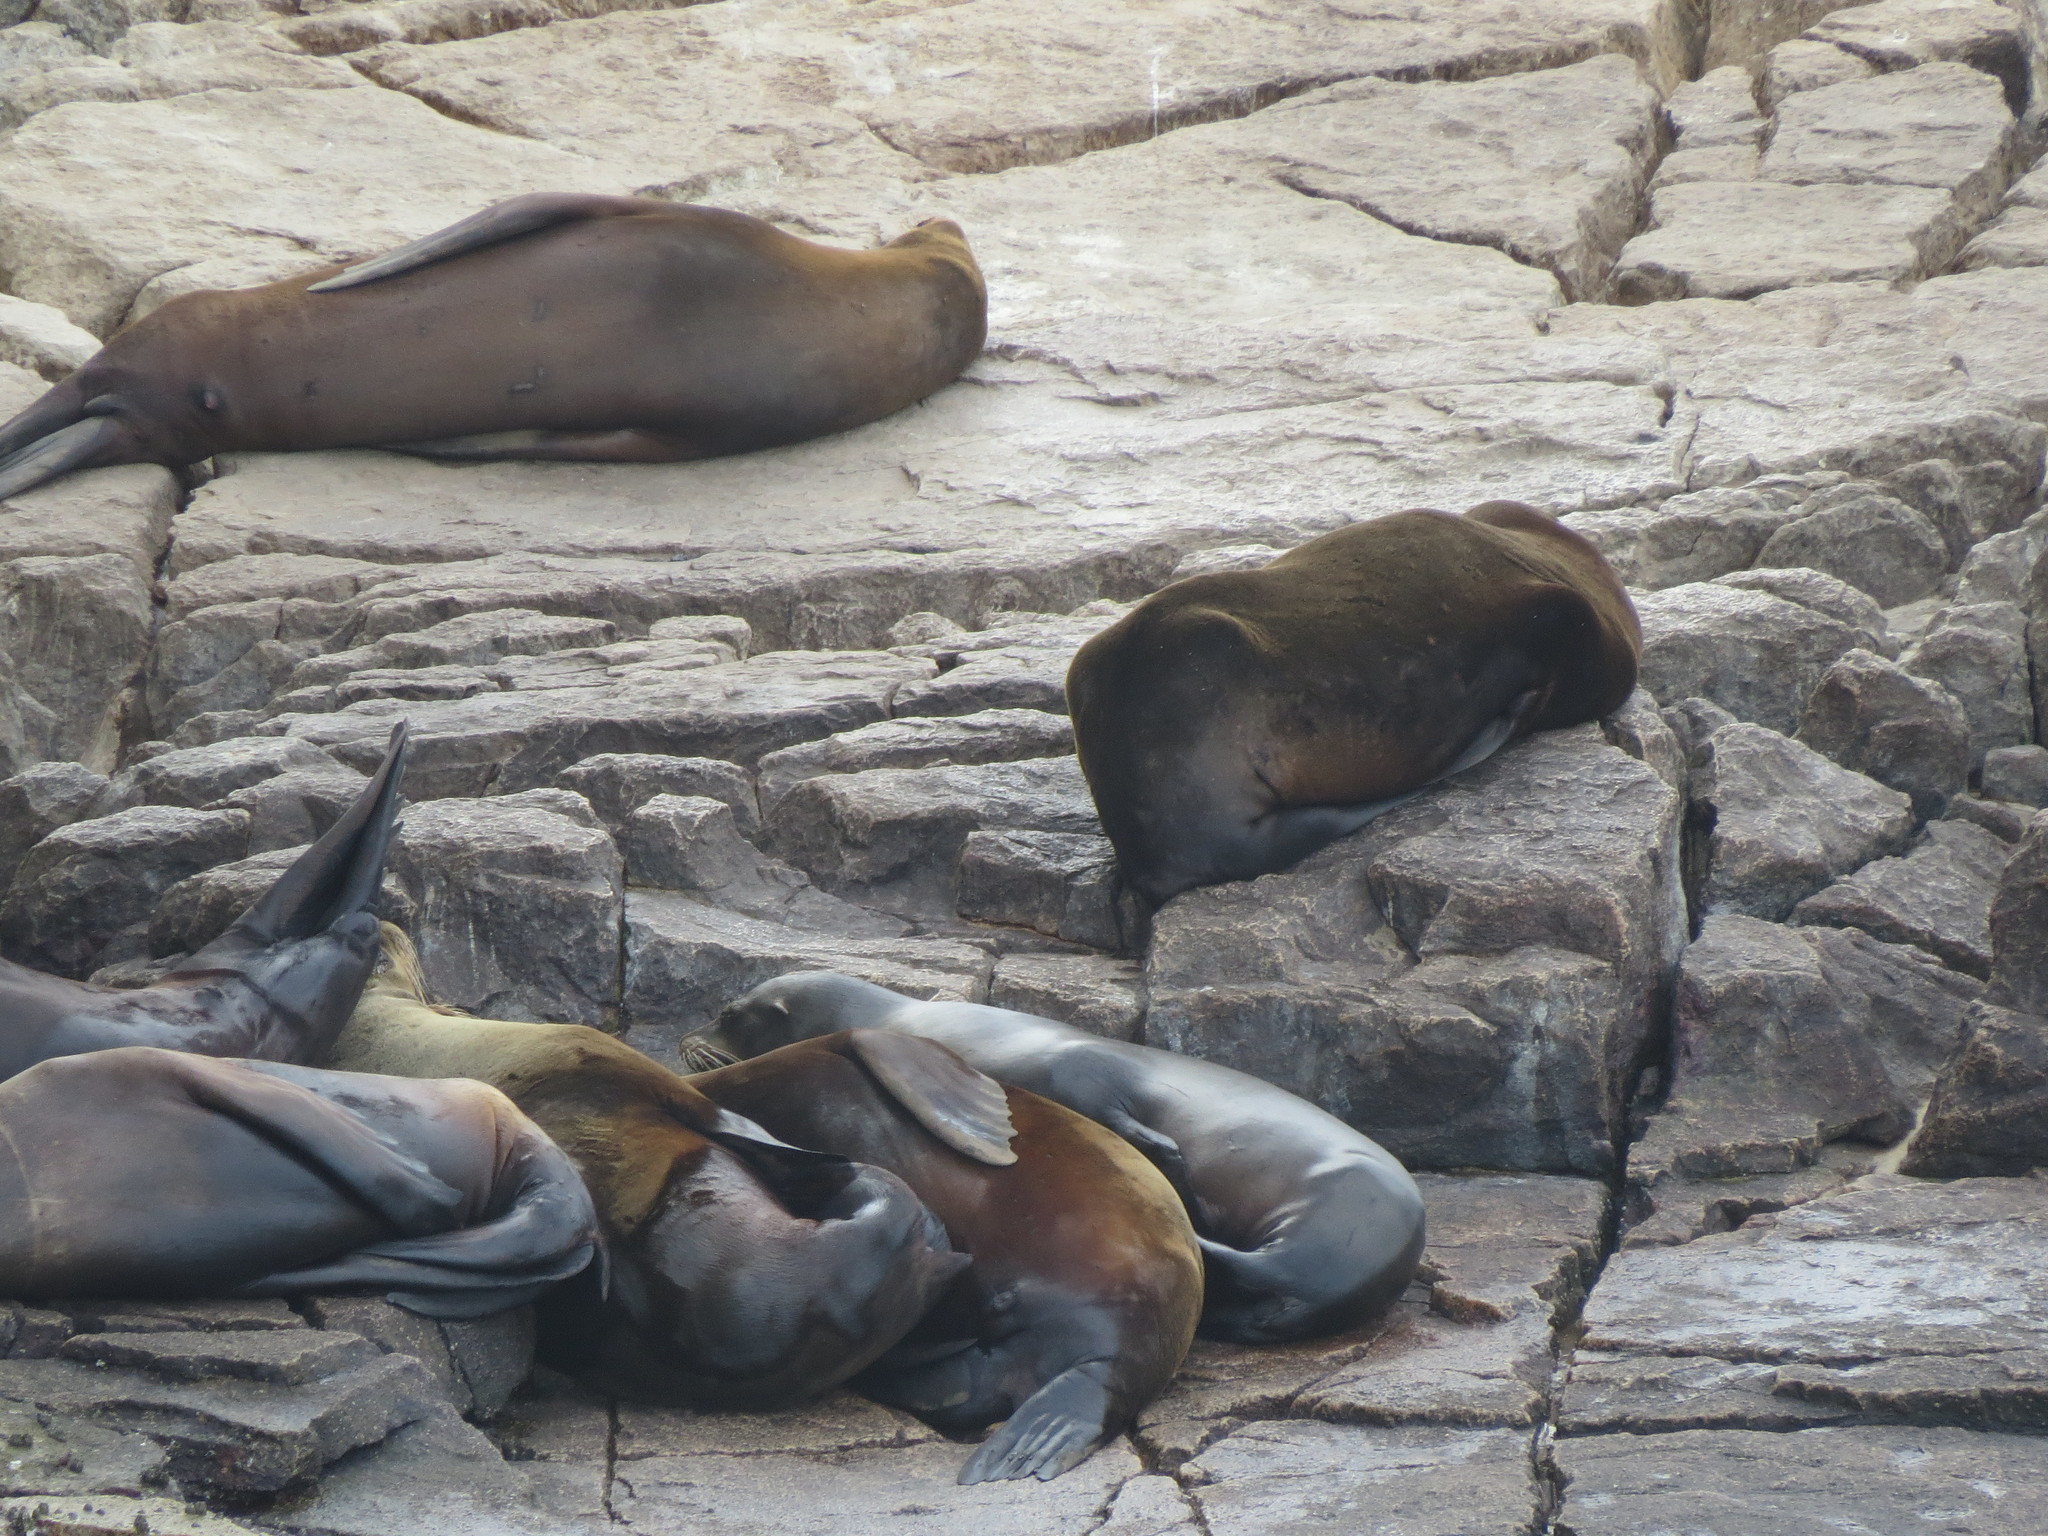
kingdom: Animalia
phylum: Chordata
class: Mammalia
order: Carnivora
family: Otariidae
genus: Zalophus
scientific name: Zalophus californianus
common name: California sea lion
